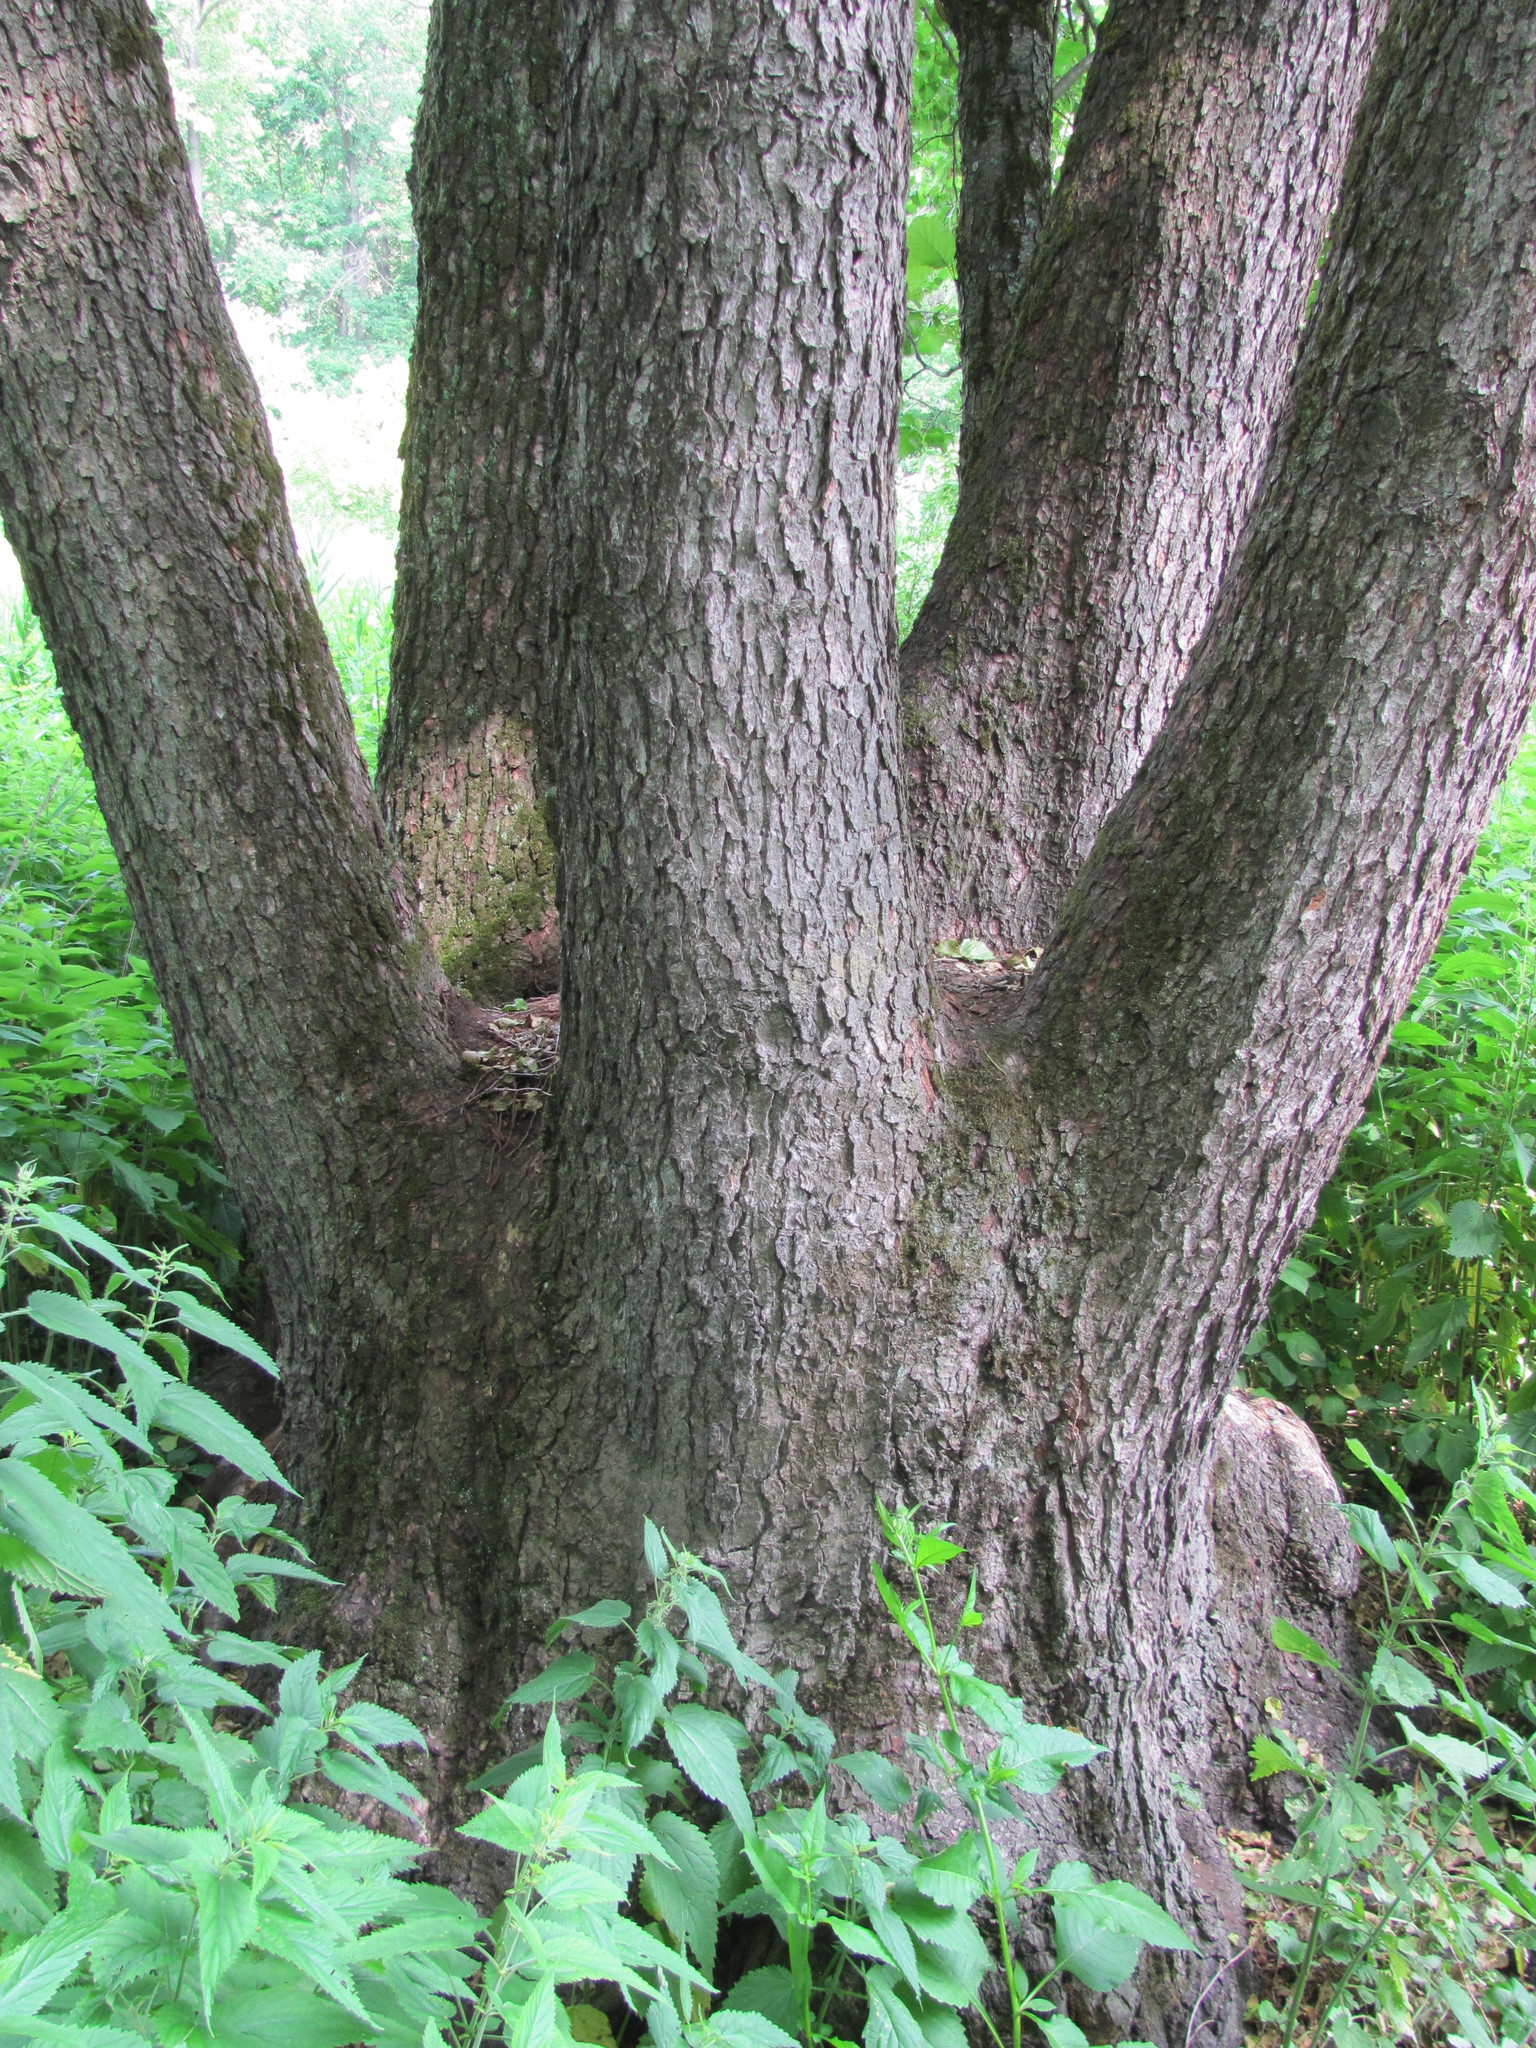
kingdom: Plantae
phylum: Tracheophyta
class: Magnoliopsida
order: Fagales
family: Betulaceae
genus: Alnus
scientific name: Alnus glutinosa
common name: Black alder
